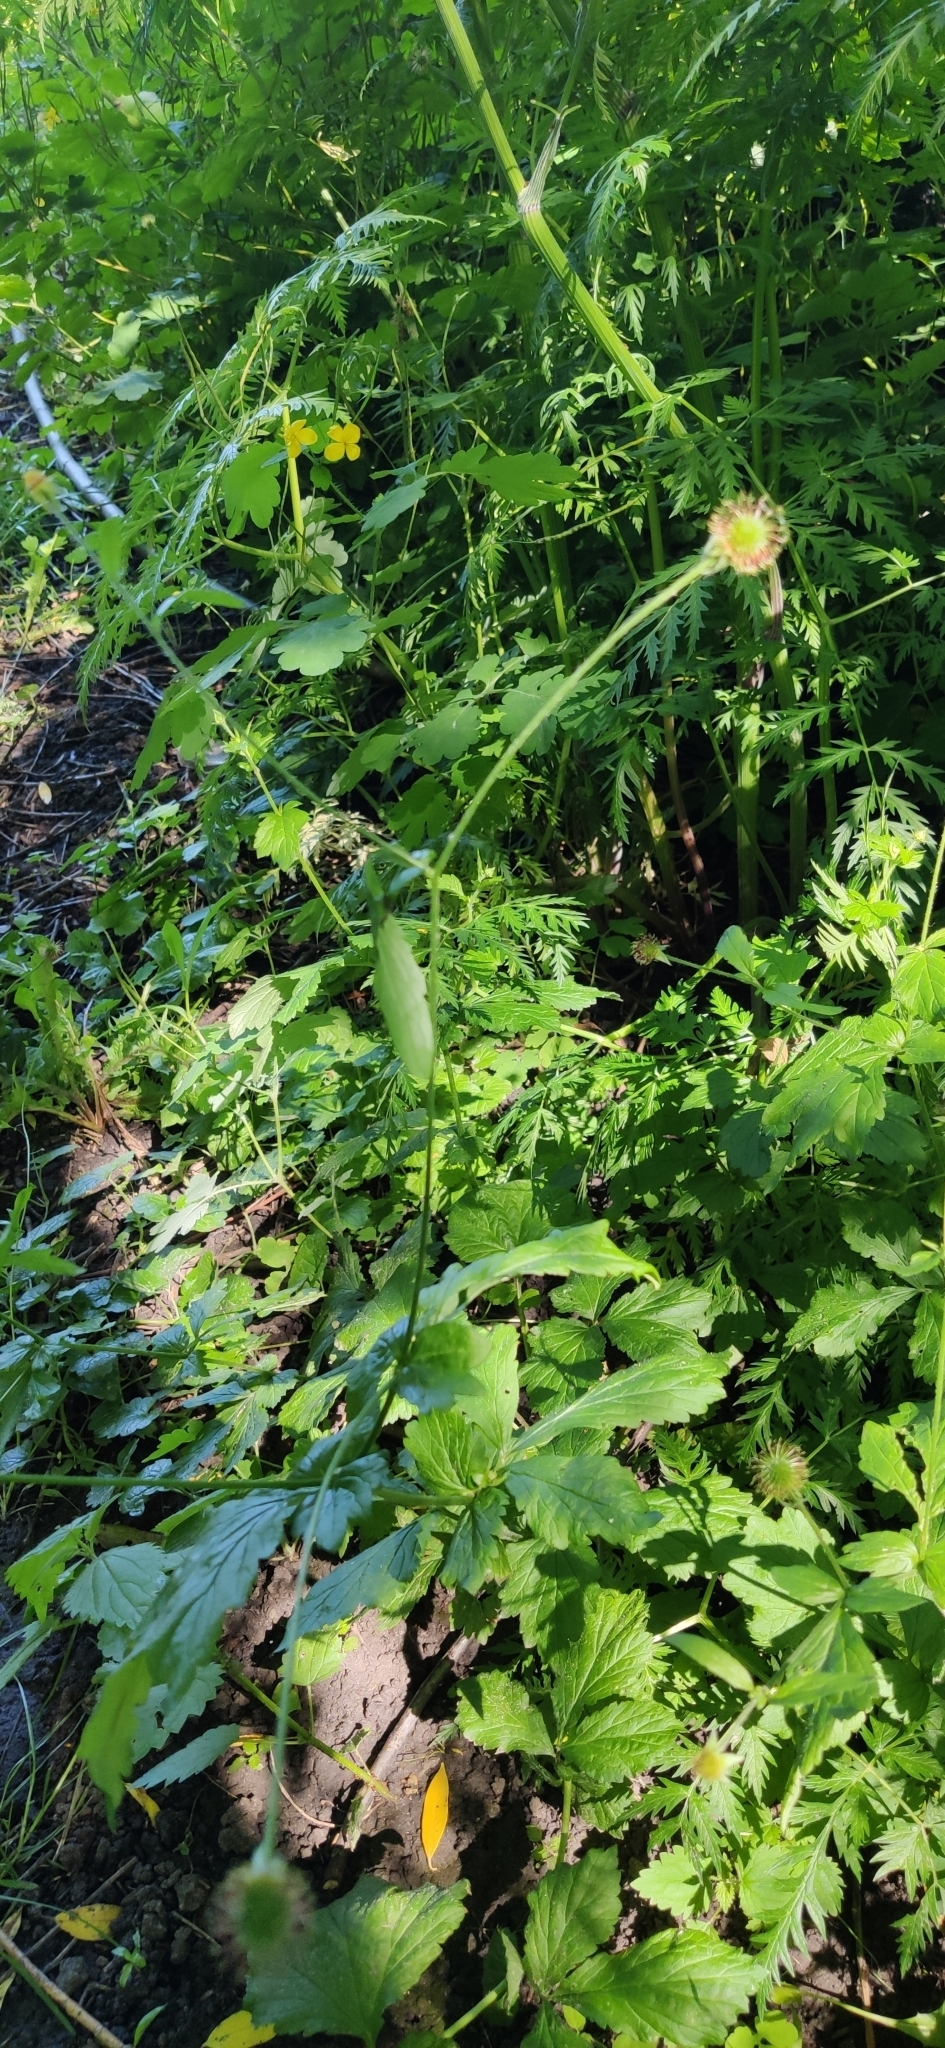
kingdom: Plantae
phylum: Tracheophyta
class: Magnoliopsida
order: Rosales
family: Rosaceae
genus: Geum
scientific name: Geum urbanum
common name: Wood avens
